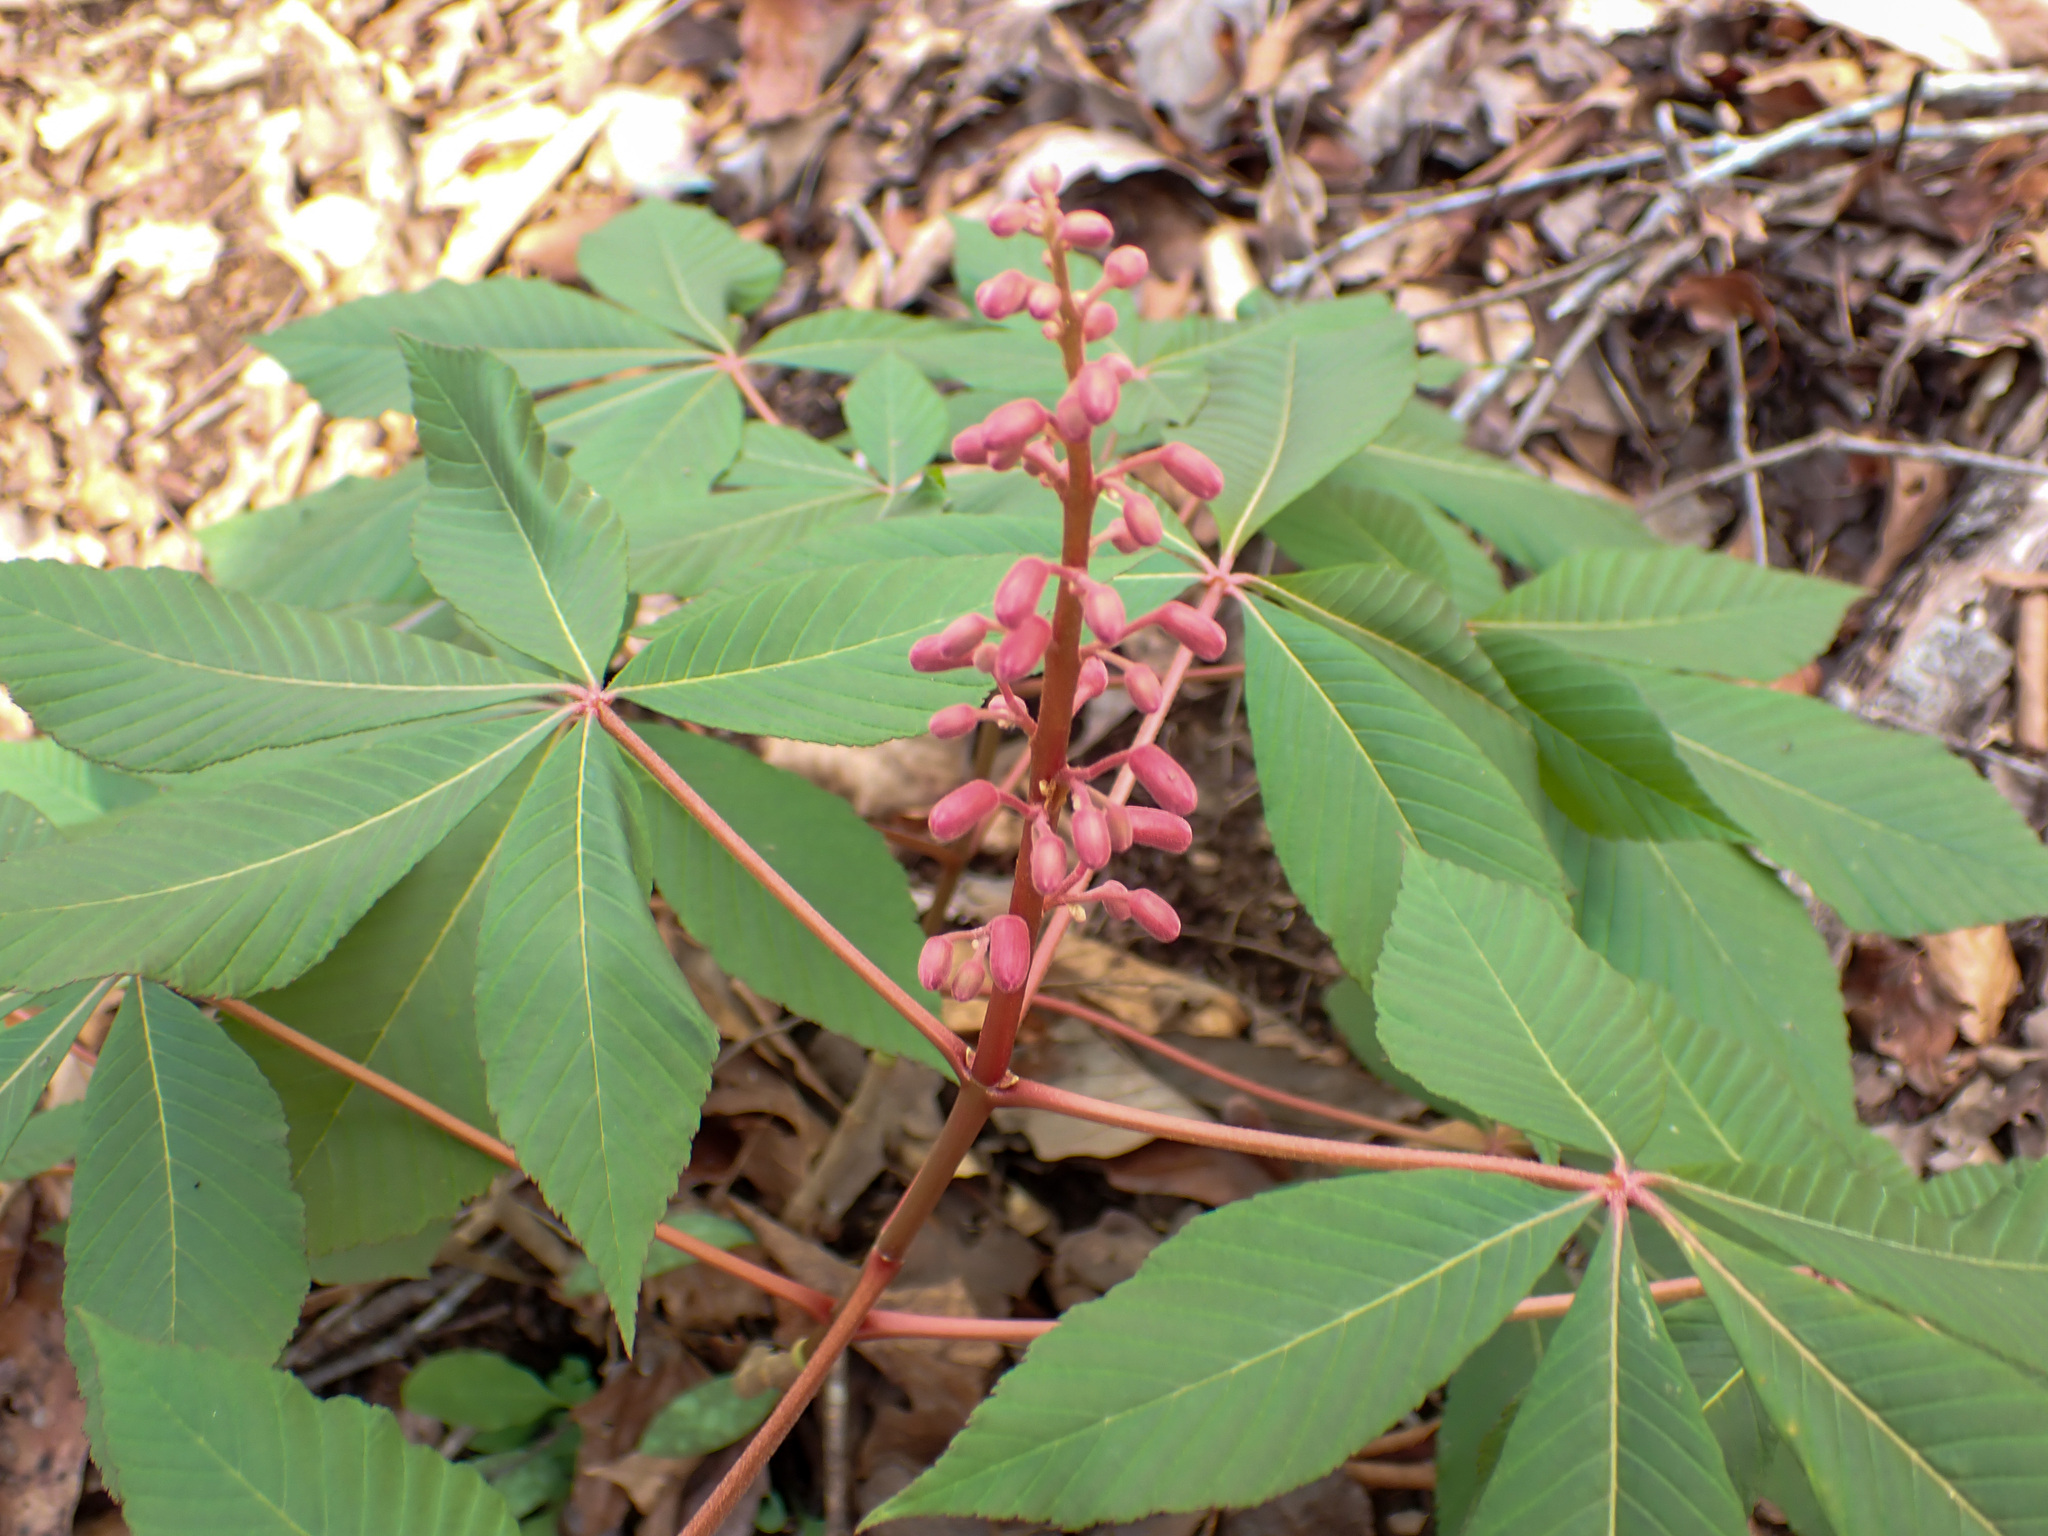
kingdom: Plantae
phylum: Tracheophyta
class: Magnoliopsida
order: Sapindales
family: Sapindaceae
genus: Aesculus
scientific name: Aesculus pavia
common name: Red buckeye
